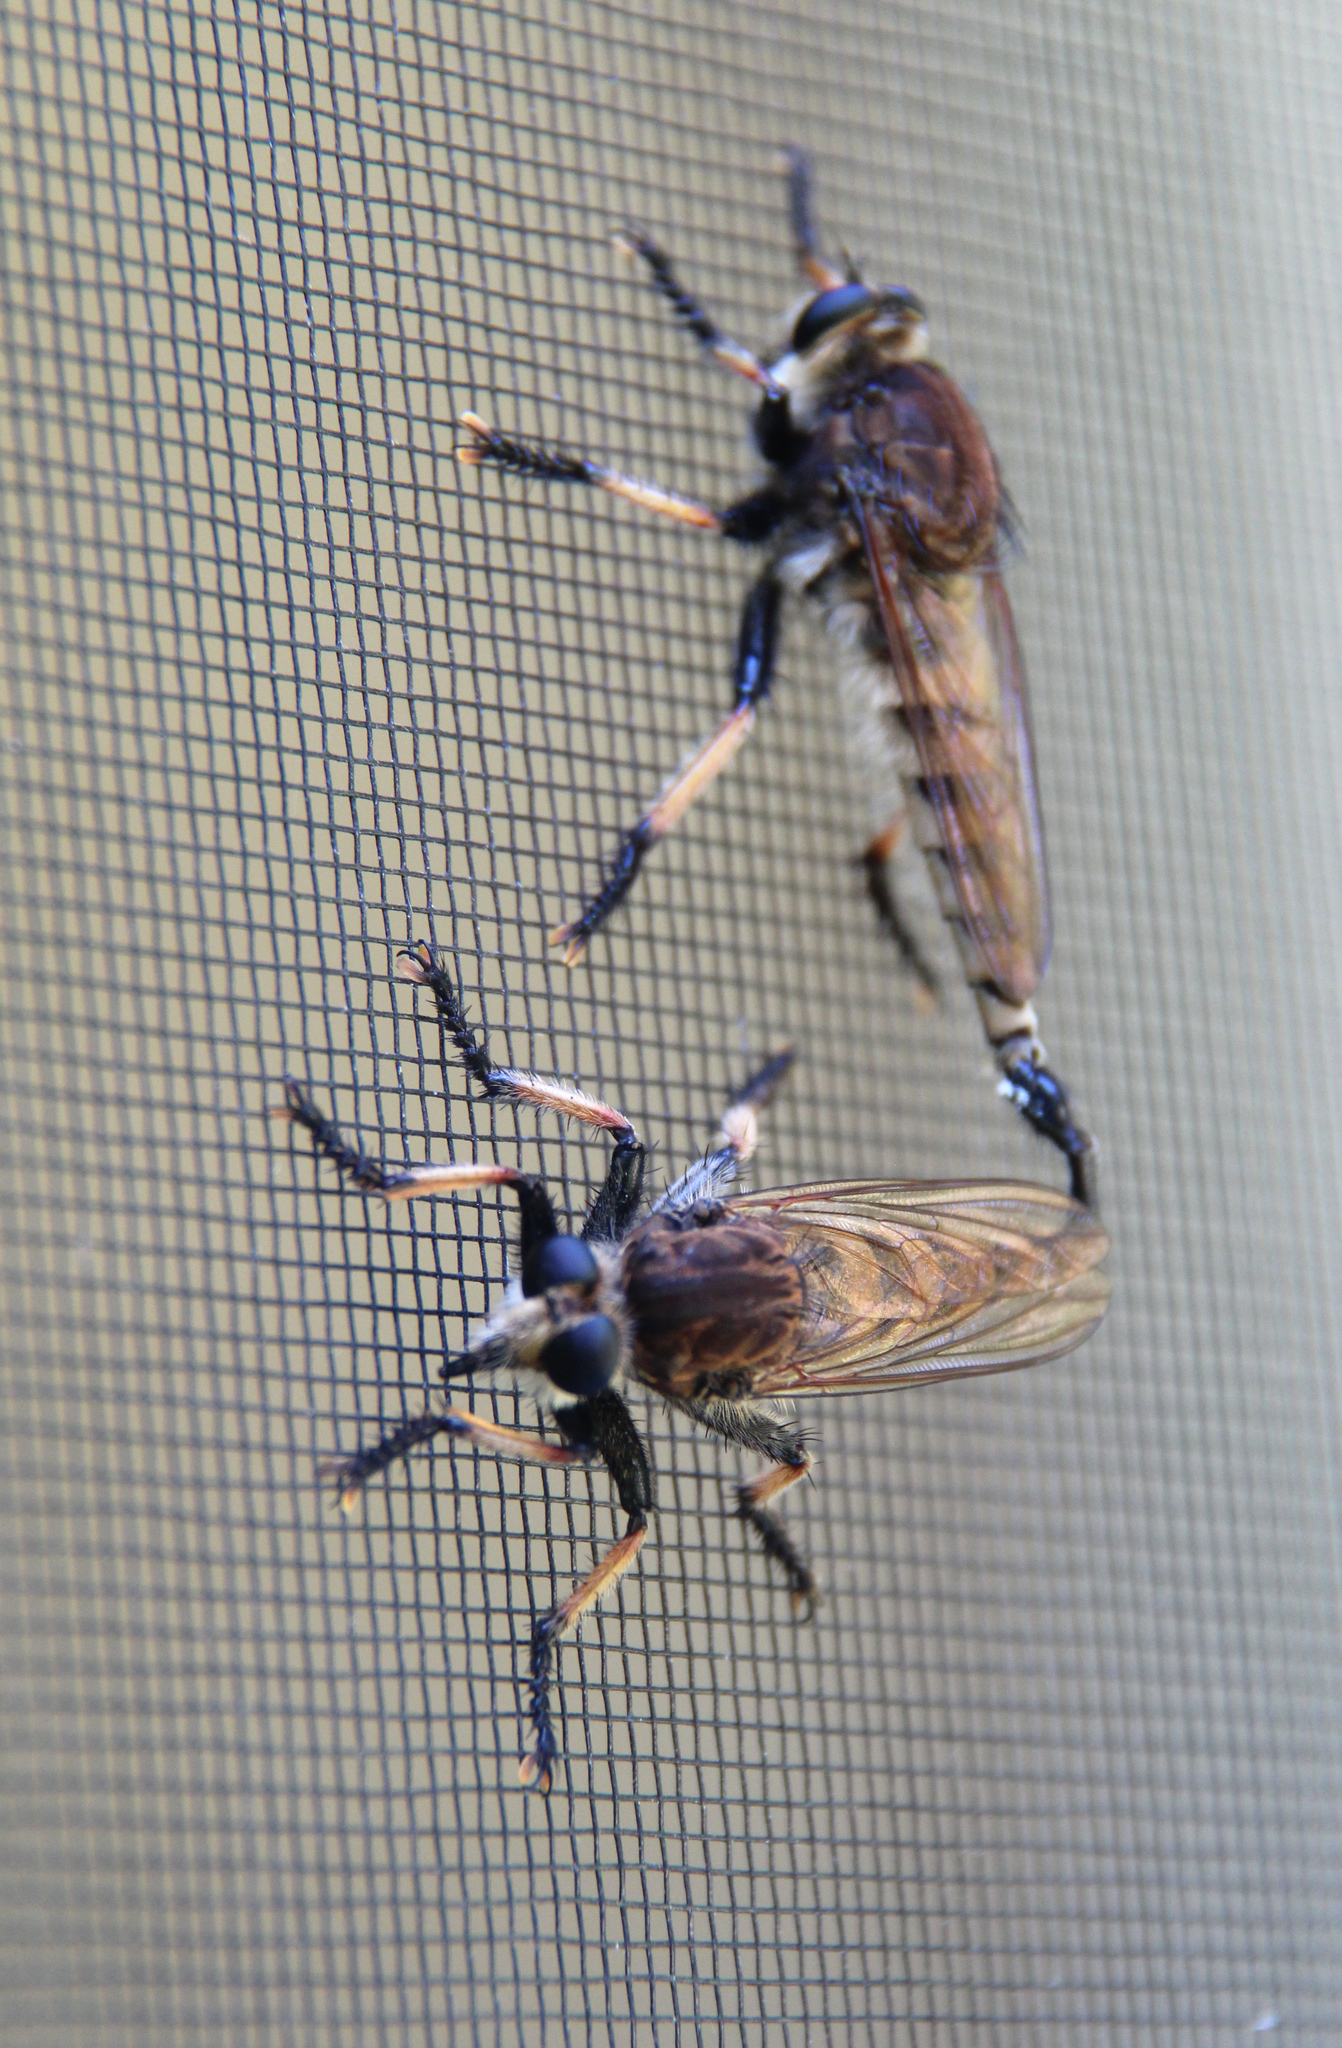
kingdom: Animalia
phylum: Arthropoda
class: Insecta
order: Diptera
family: Asilidae
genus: Promachus
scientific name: Promachus rufipes
